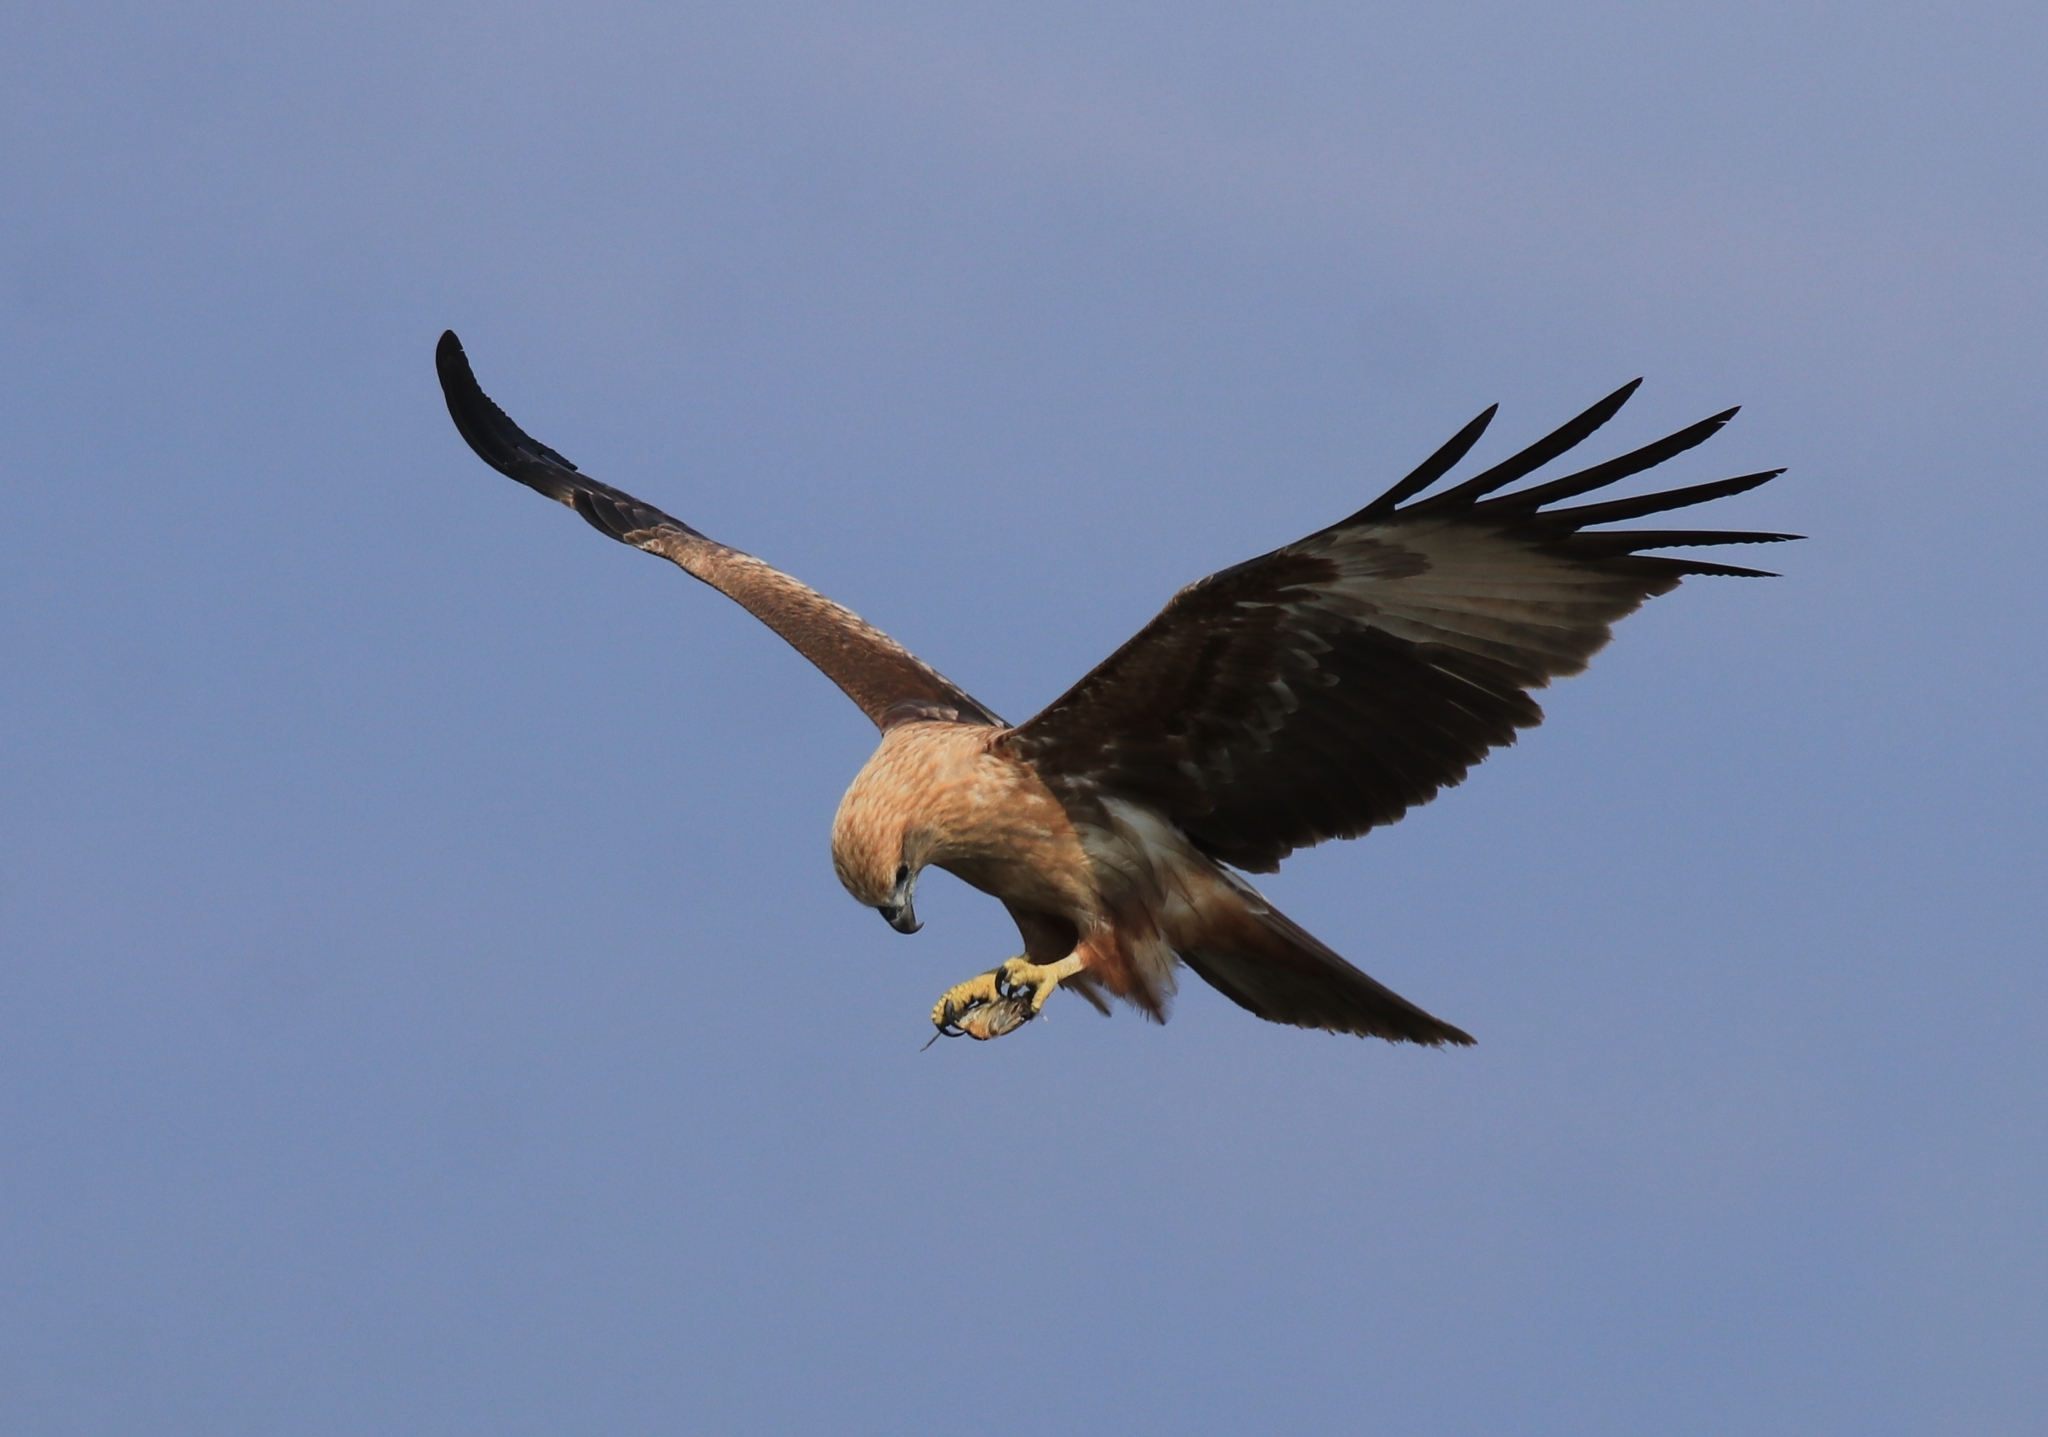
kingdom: Animalia
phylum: Chordata
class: Aves
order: Accipitriformes
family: Accipitridae
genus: Haliastur
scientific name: Haliastur indus
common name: Brahminy kite
